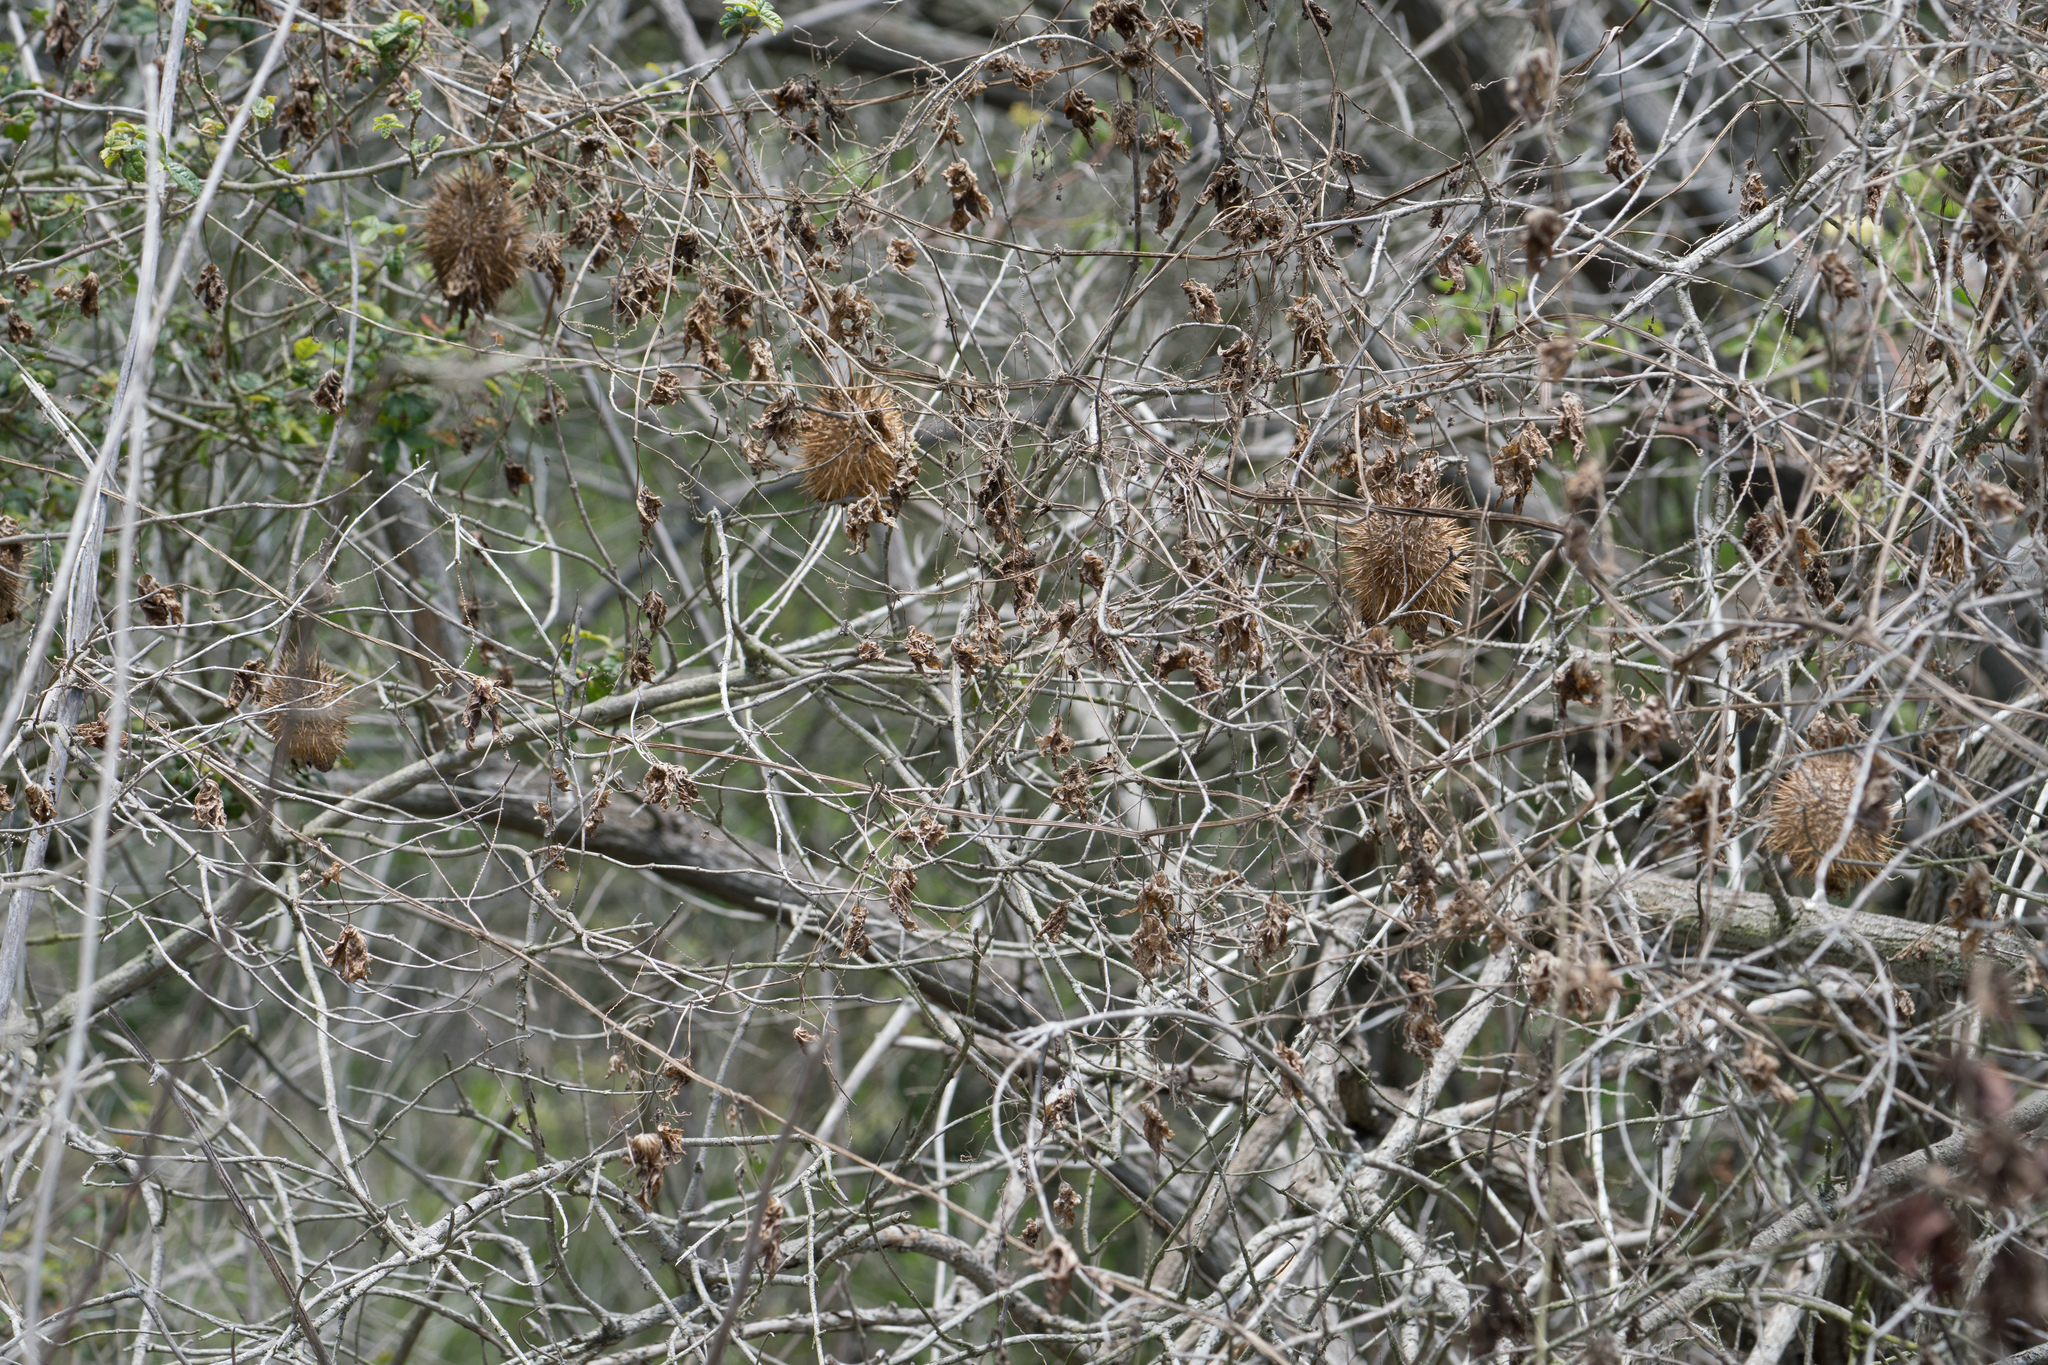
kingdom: Plantae
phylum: Tracheophyta
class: Magnoliopsida
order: Cucurbitales
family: Cucurbitaceae
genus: Marah
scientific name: Marah macrocarpa
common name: Cucamonga manroot
